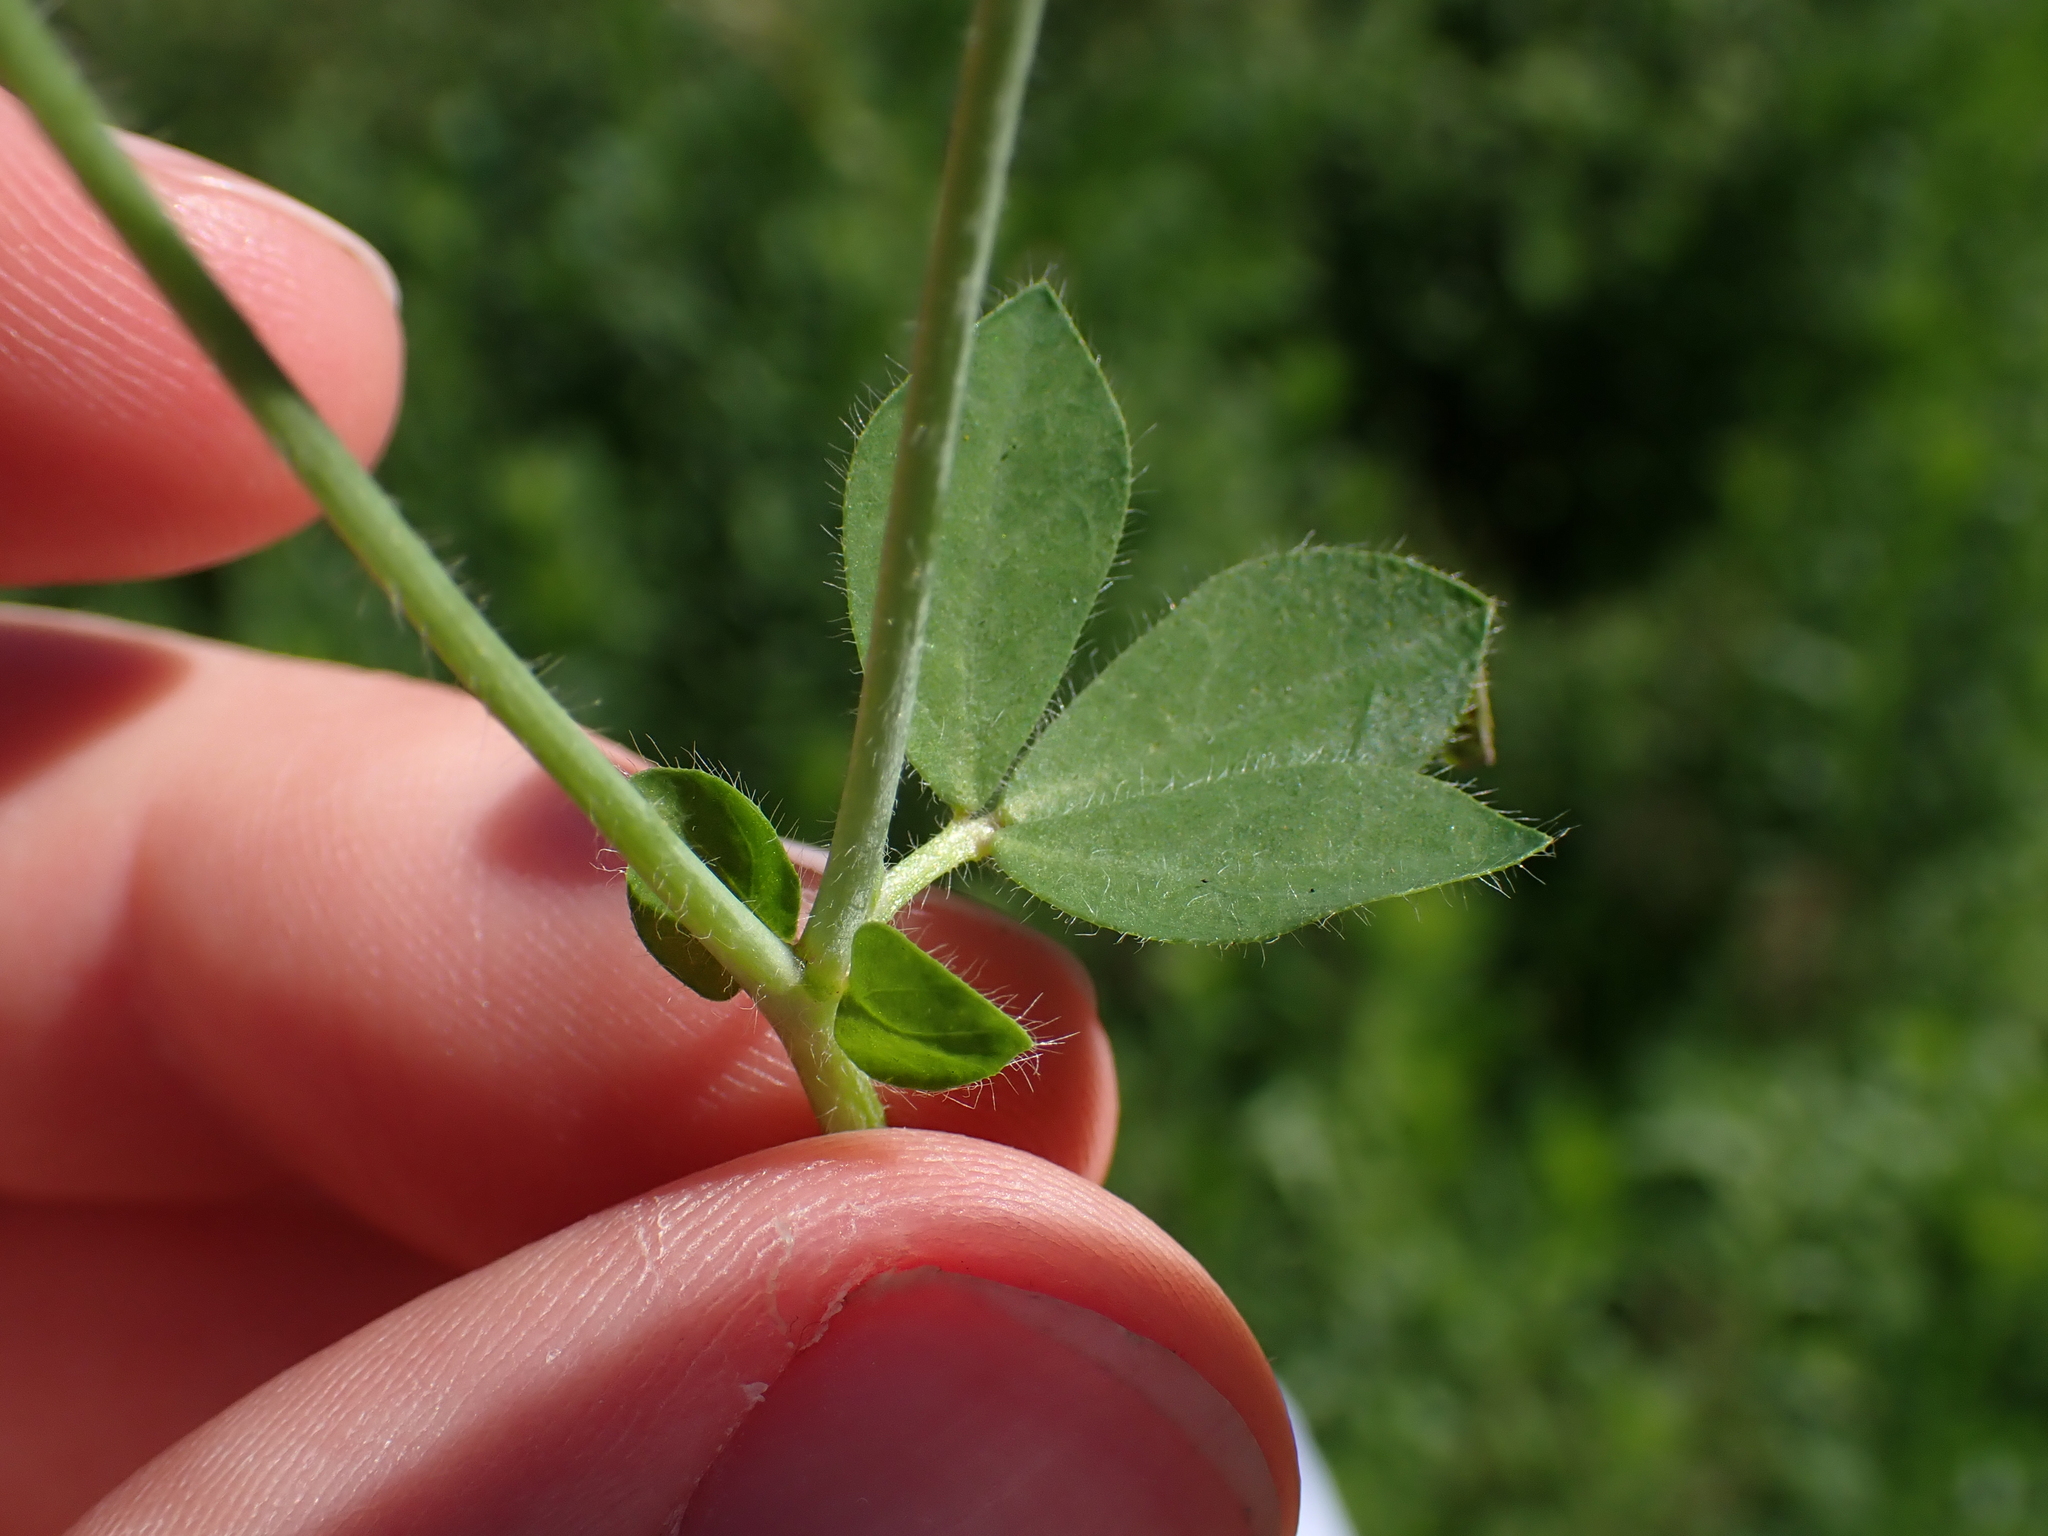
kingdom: Plantae
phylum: Tracheophyta
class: Magnoliopsida
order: Fabales
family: Fabaceae
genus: Lotus
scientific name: Lotus pedunculatus
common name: Greater birdsfoot-trefoil
